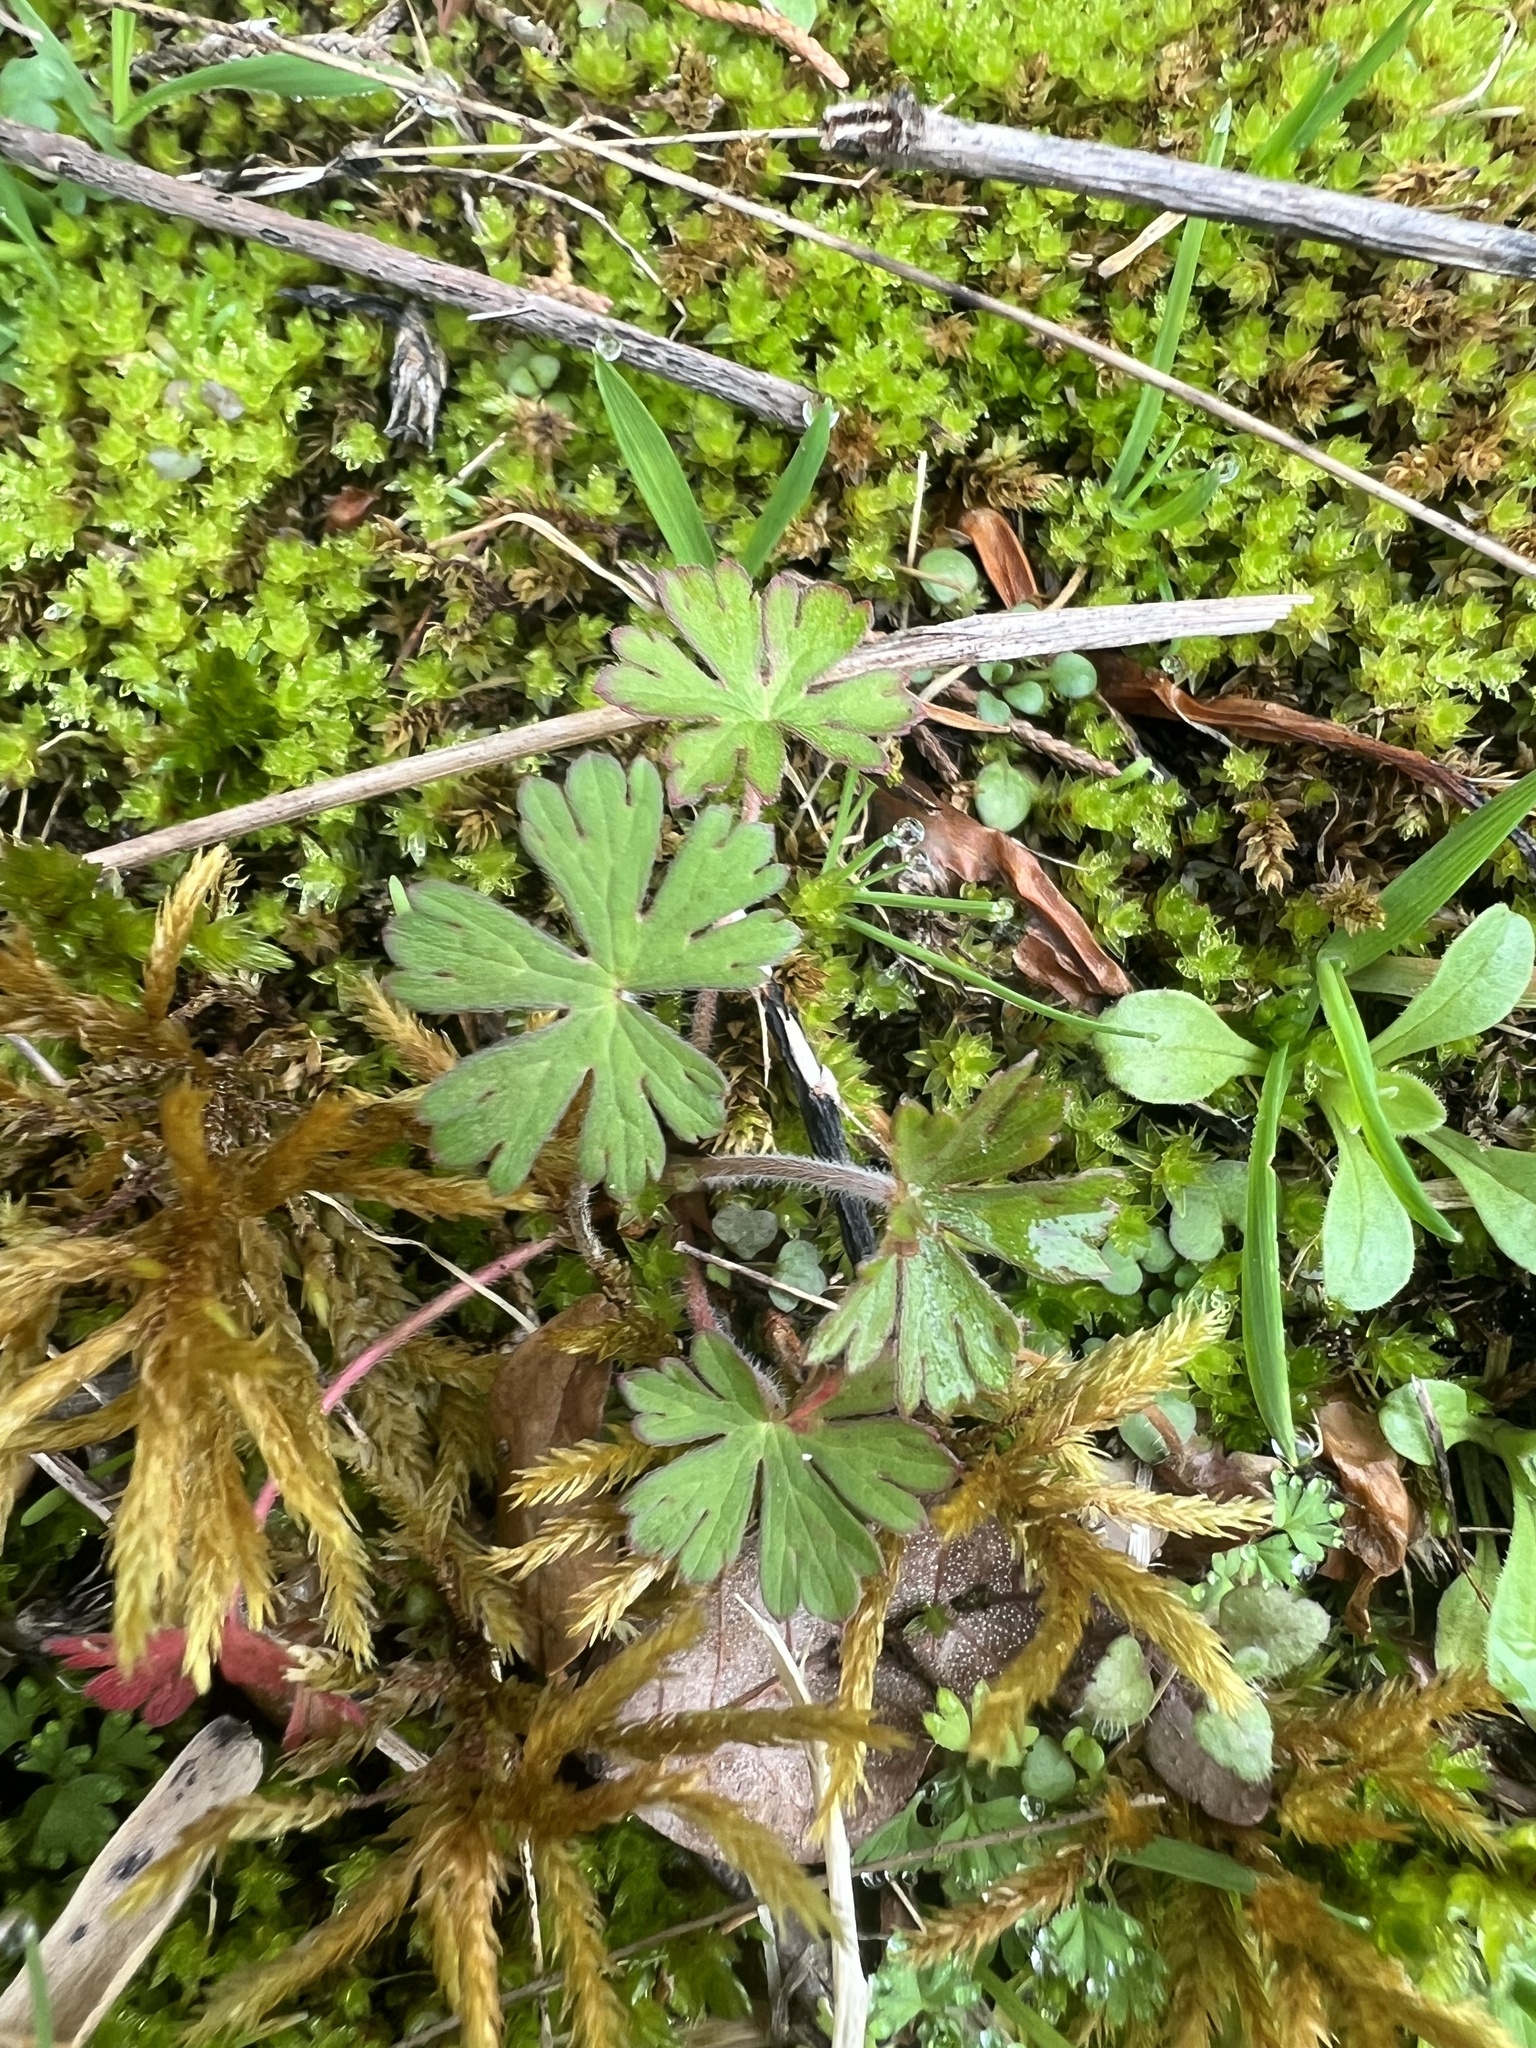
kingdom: Plantae
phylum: Tracheophyta
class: Magnoliopsida
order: Geraniales
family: Geraniaceae
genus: Geranium
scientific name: Geranium carolinianum
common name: Carolina crane's-bill
